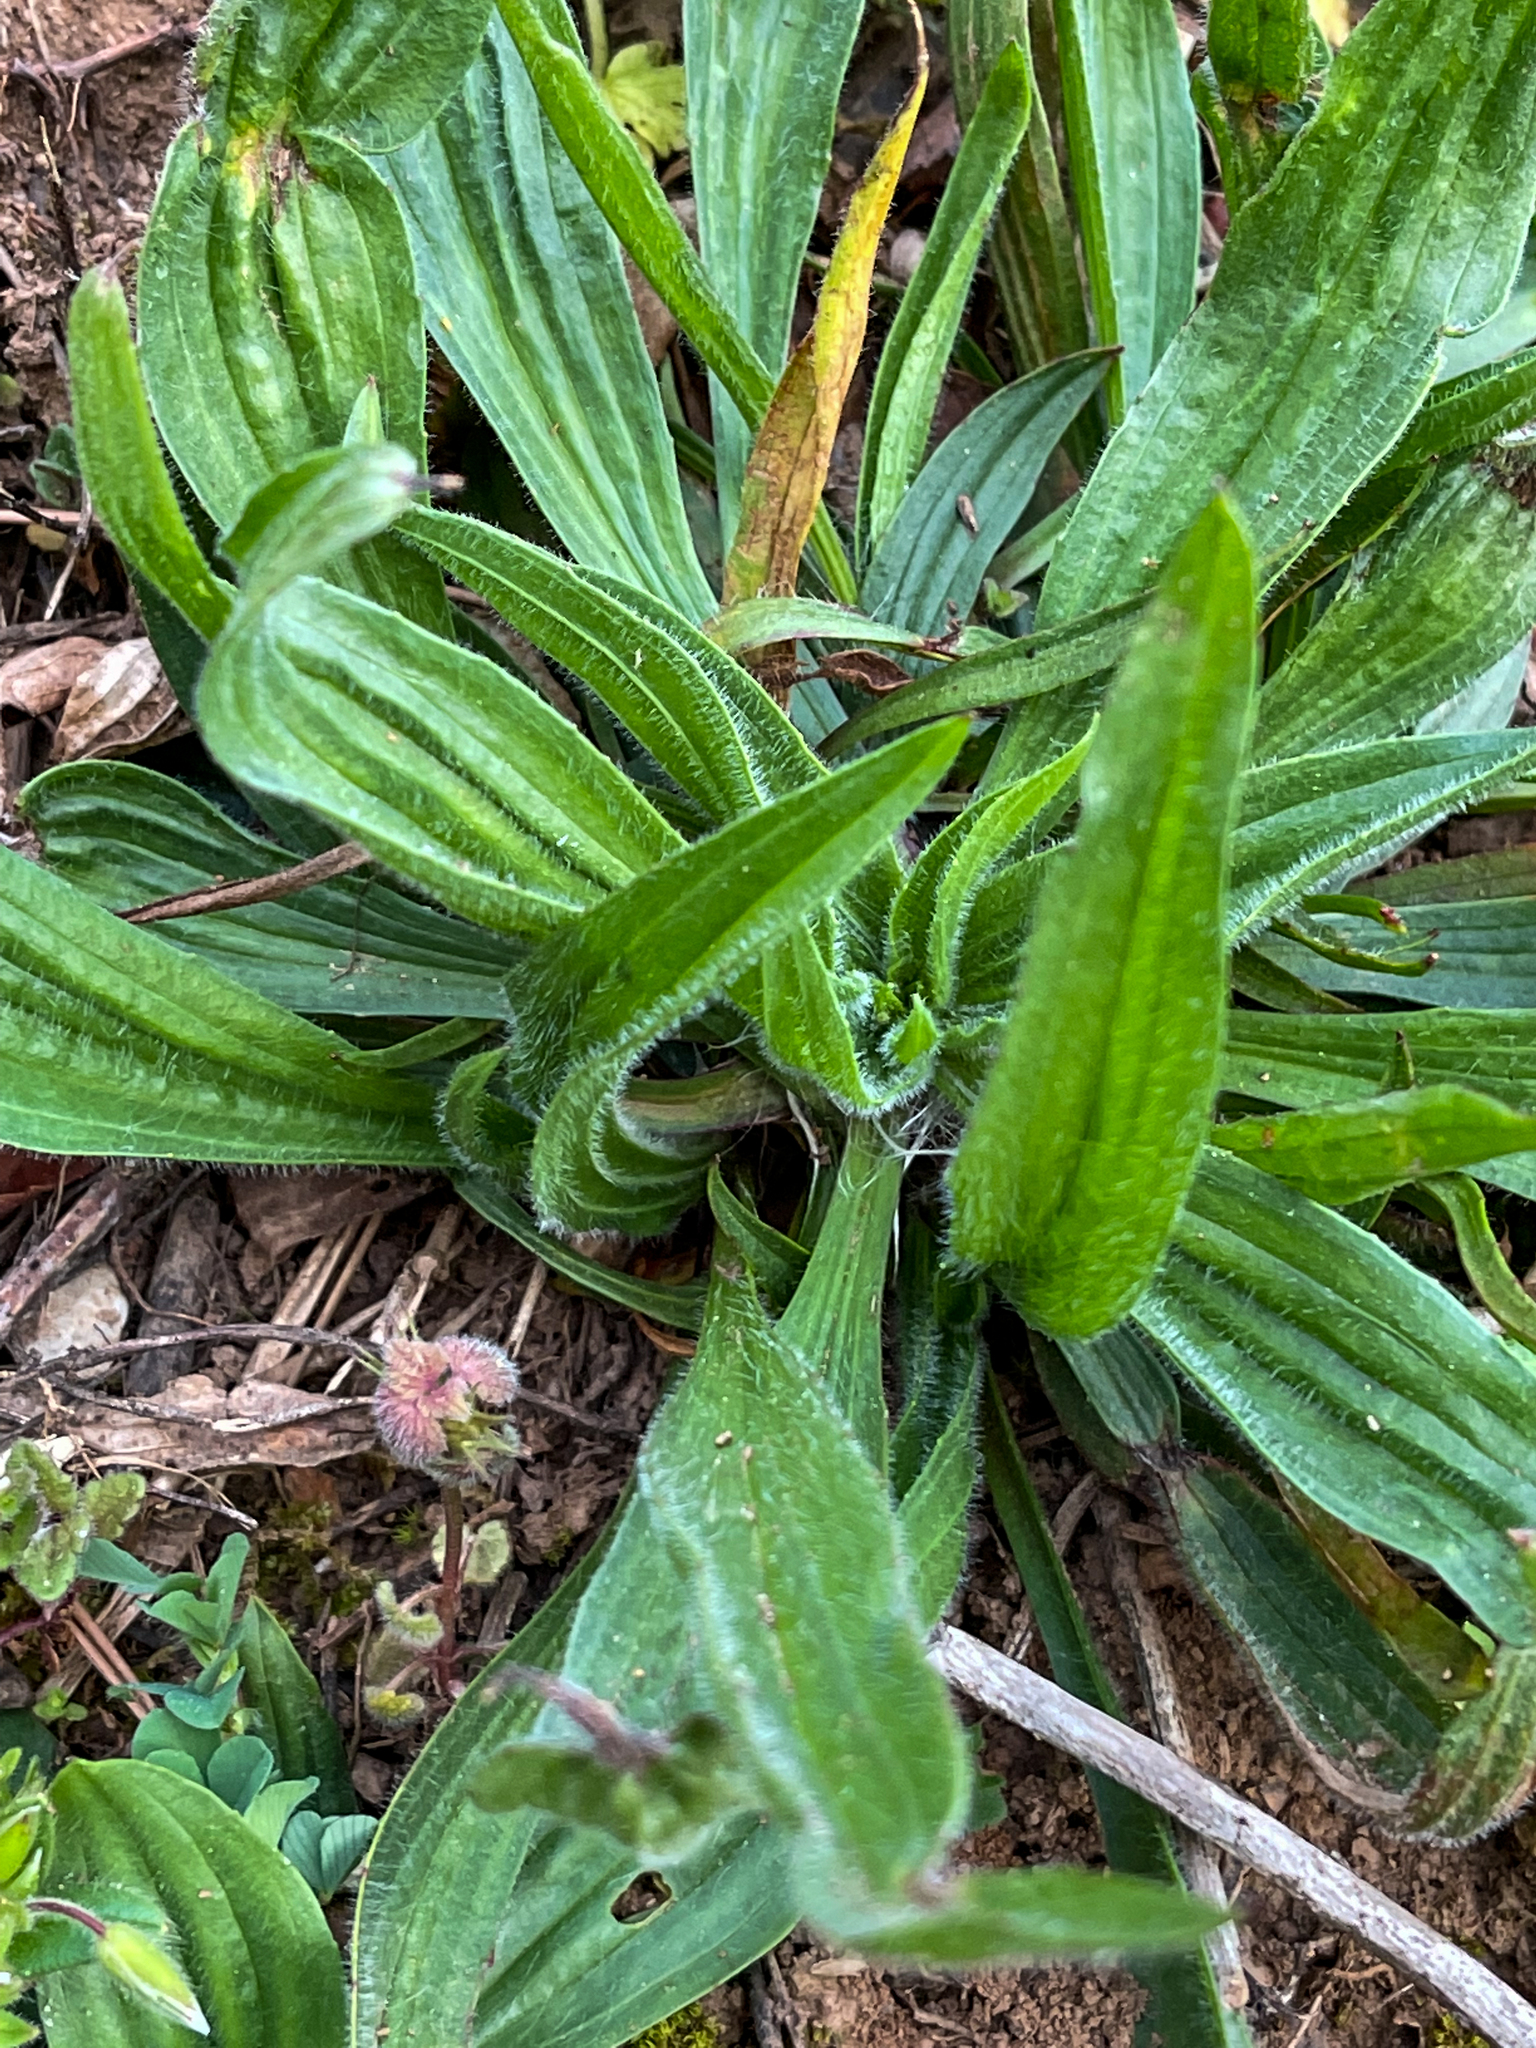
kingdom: Plantae
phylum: Tracheophyta
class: Magnoliopsida
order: Lamiales
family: Plantaginaceae
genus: Plantago
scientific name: Plantago lanceolata
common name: Ribwort plantain
